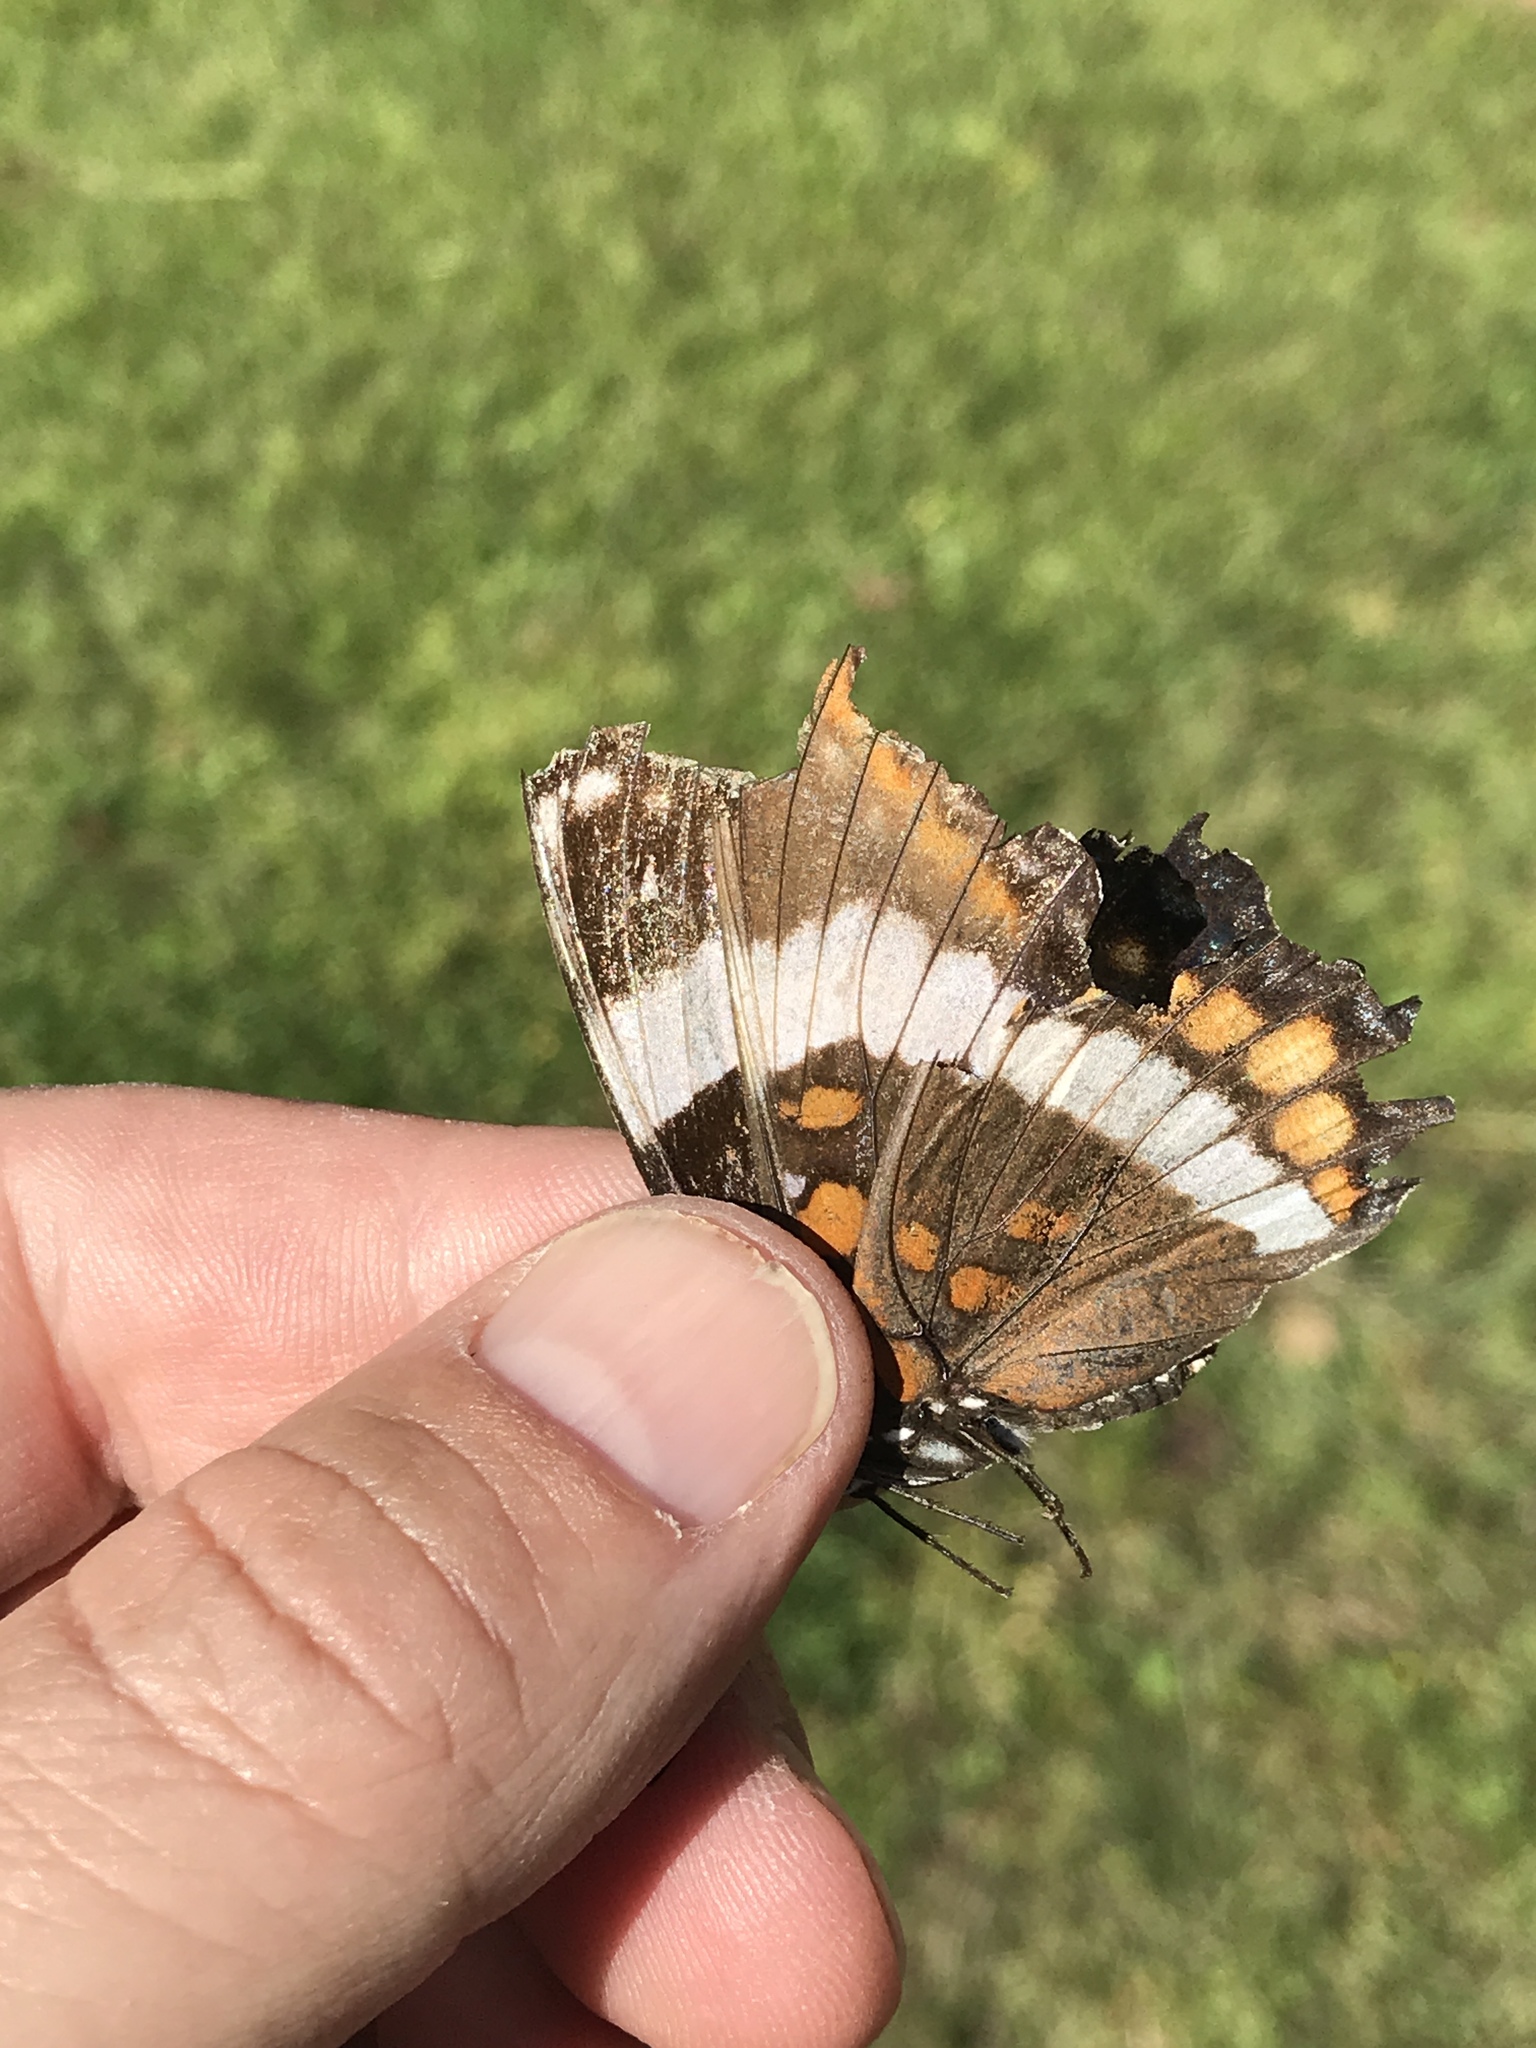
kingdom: Animalia
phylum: Arthropoda
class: Insecta
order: Lepidoptera
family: Nymphalidae
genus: Limenitis
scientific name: Limenitis arthemis
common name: Red-spotted admiral
